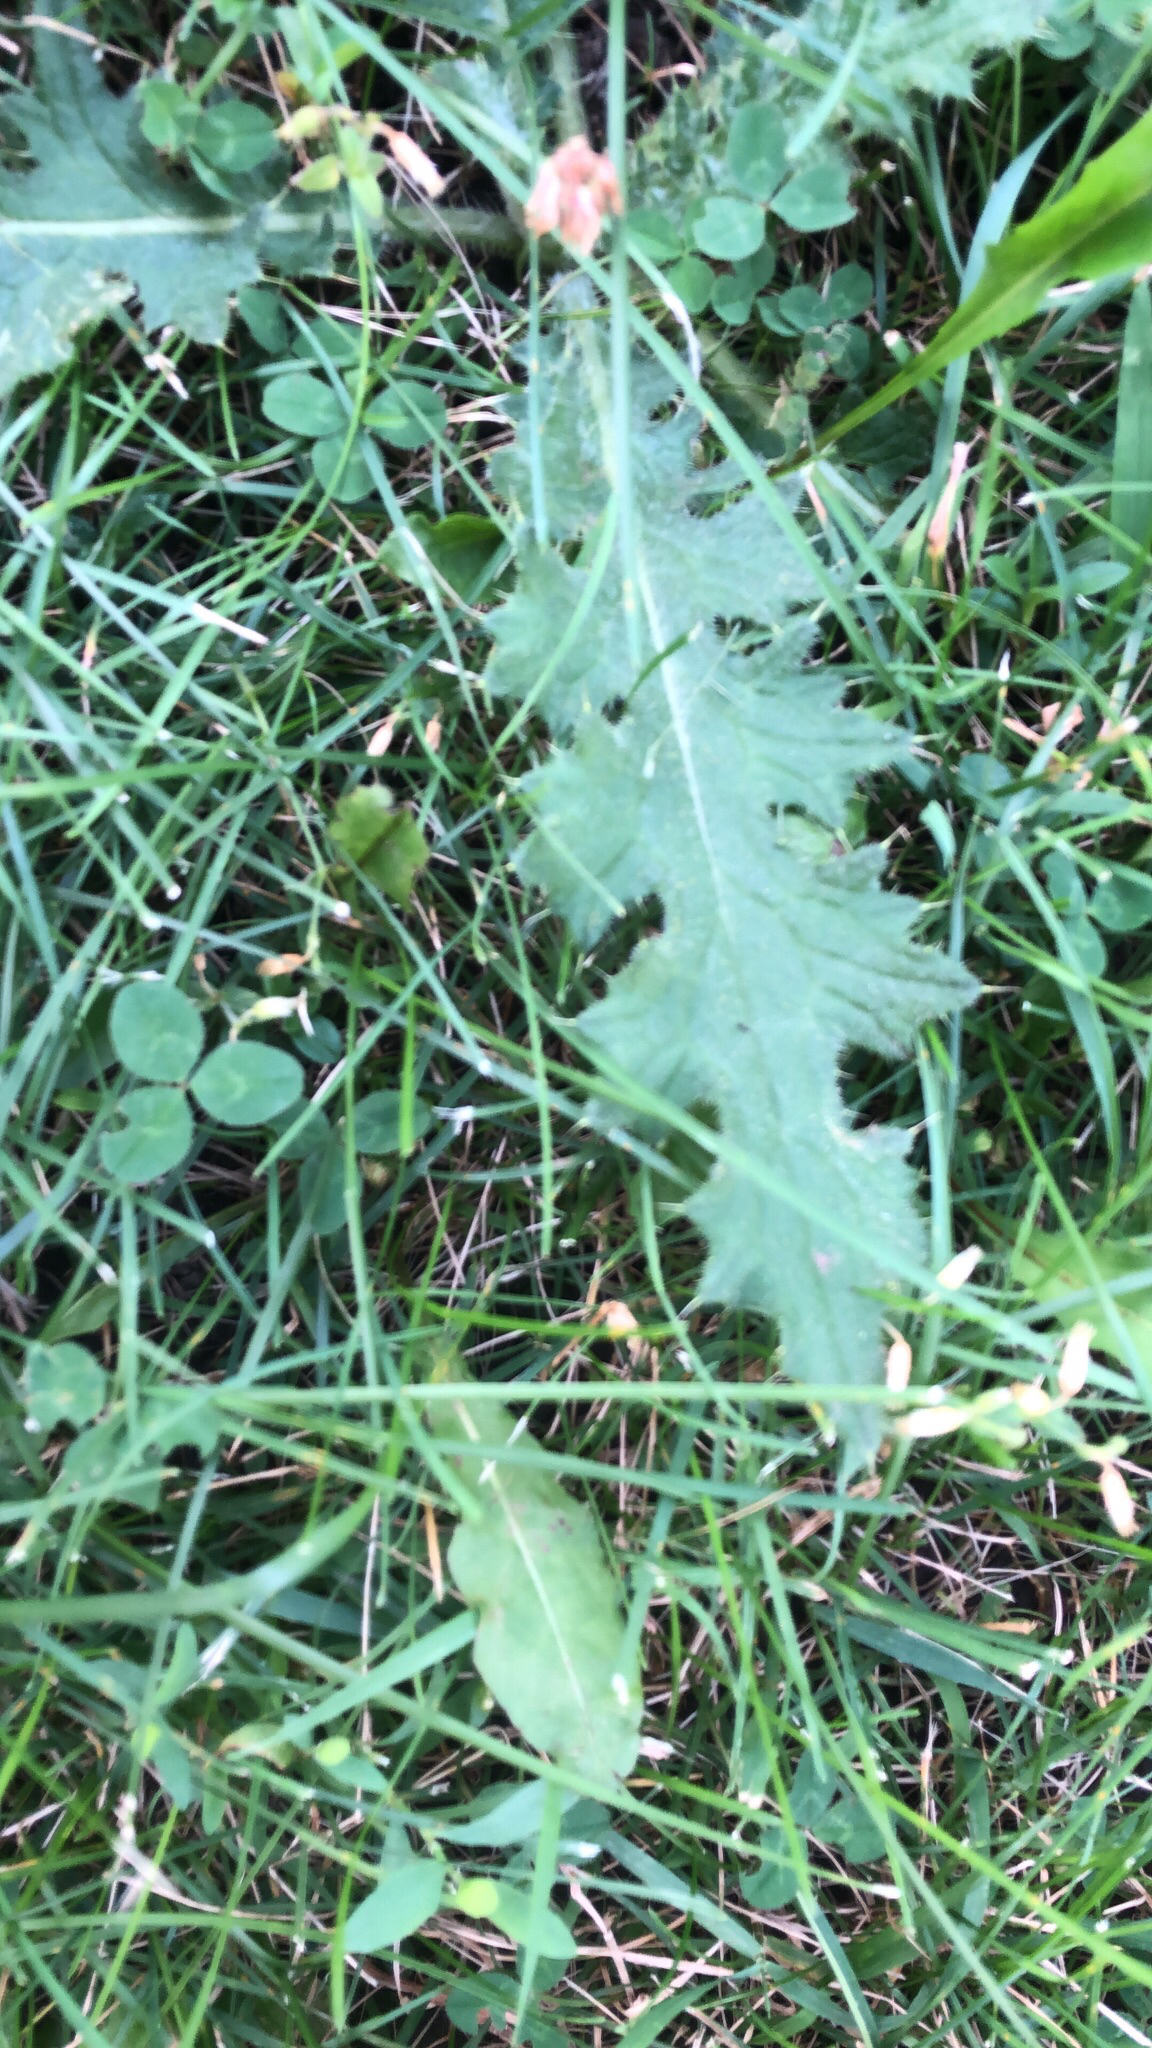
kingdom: Plantae
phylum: Tracheophyta
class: Magnoliopsida
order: Asterales
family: Asteraceae
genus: Cirsium
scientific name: Cirsium vulgare
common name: Bull thistle
